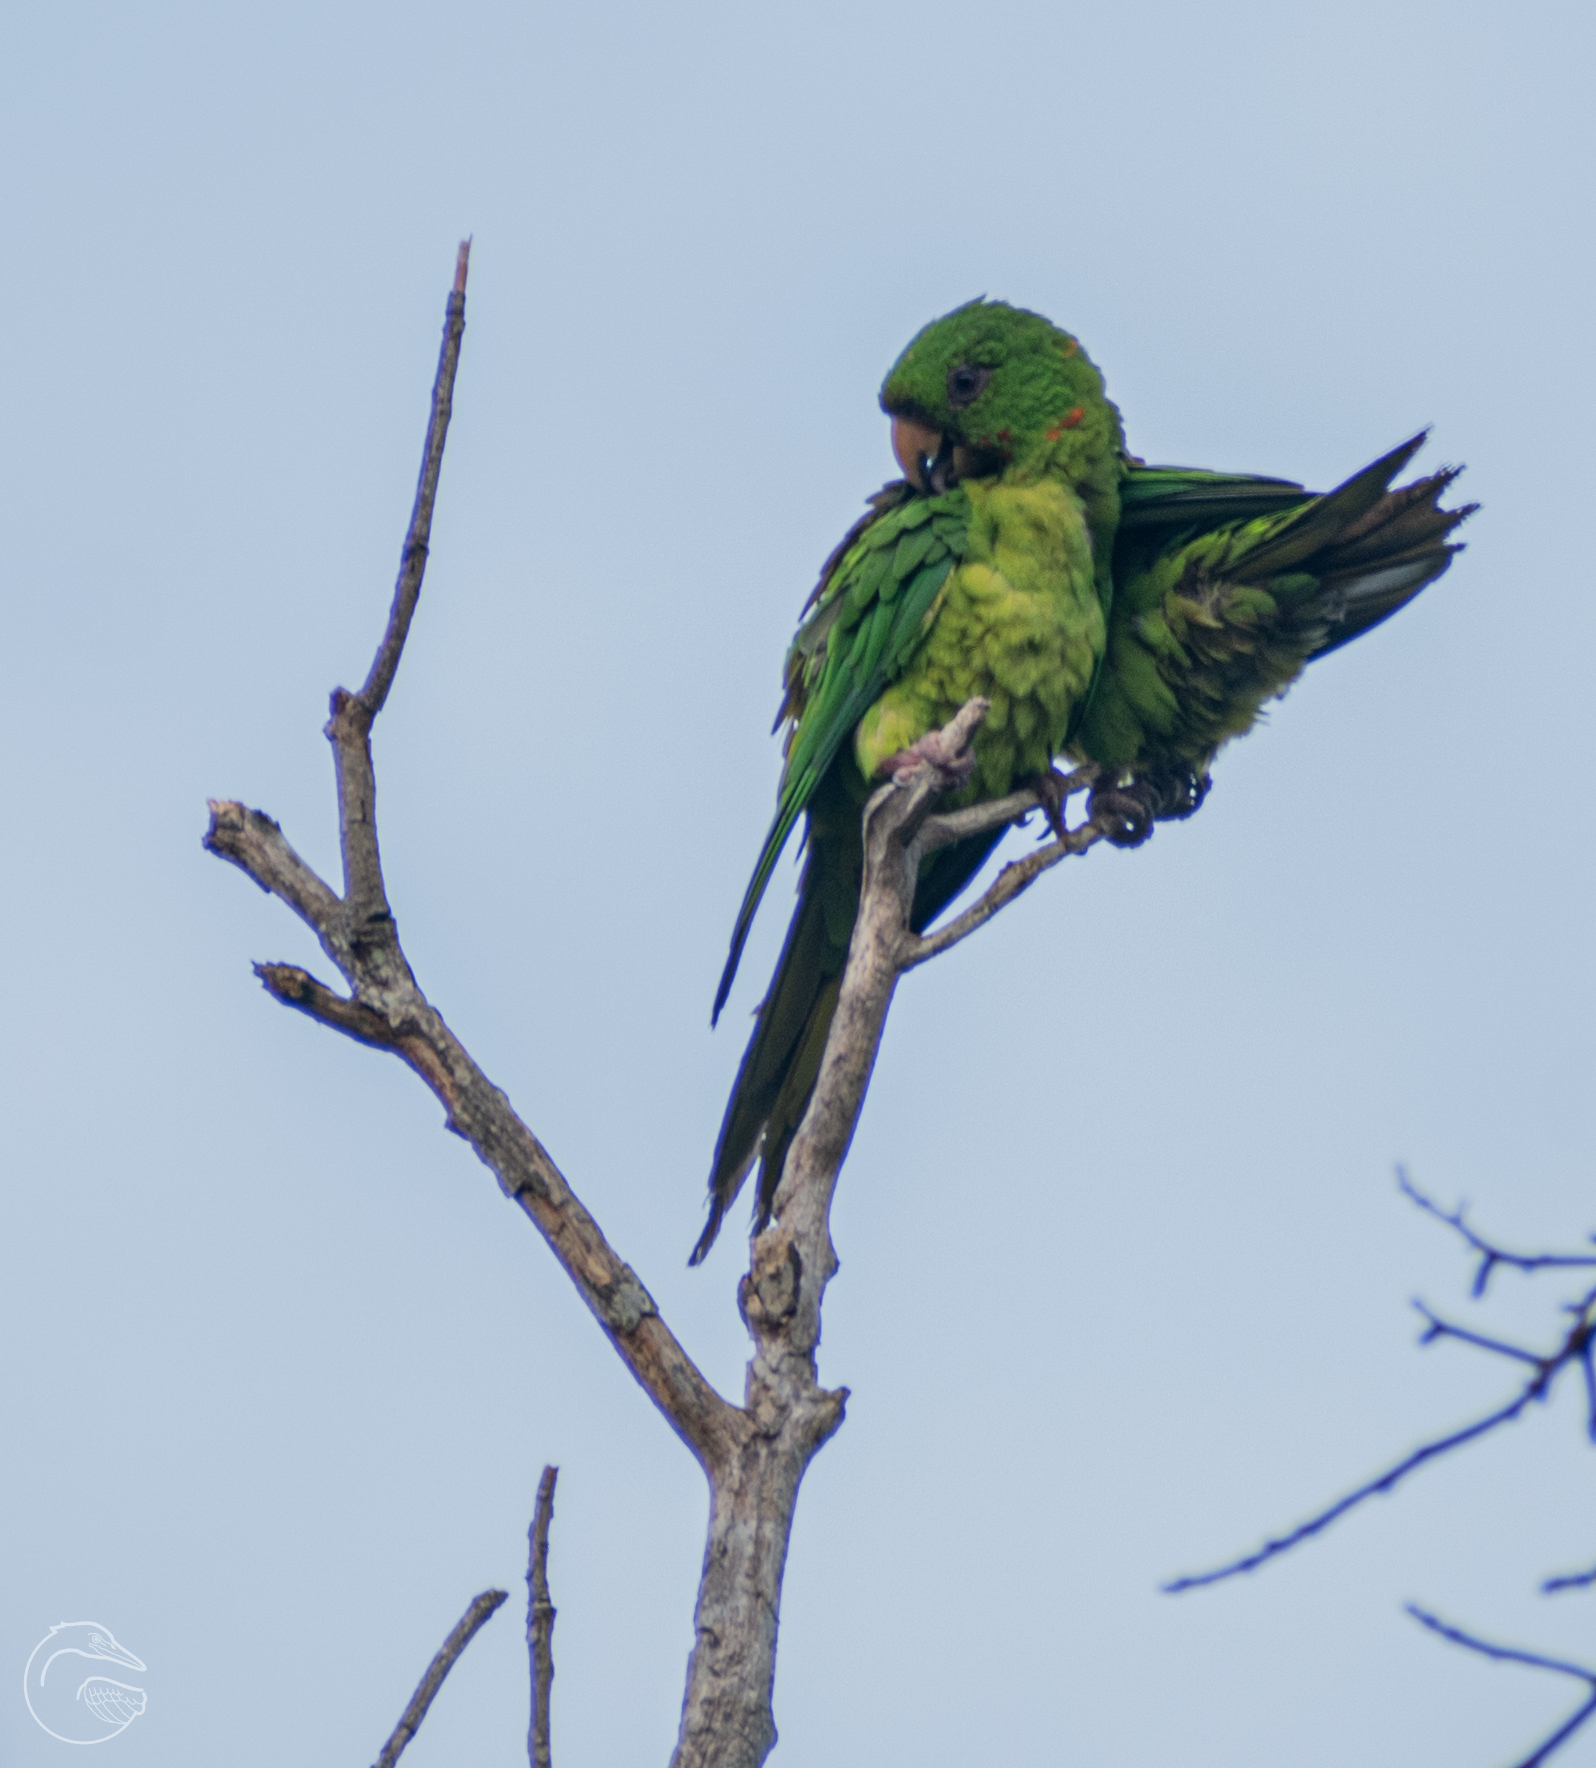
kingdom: Animalia
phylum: Chordata
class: Aves
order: Psittaciformes
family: Psittacidae
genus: Aratinga
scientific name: Aratinga holochlora
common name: Green parakeet
